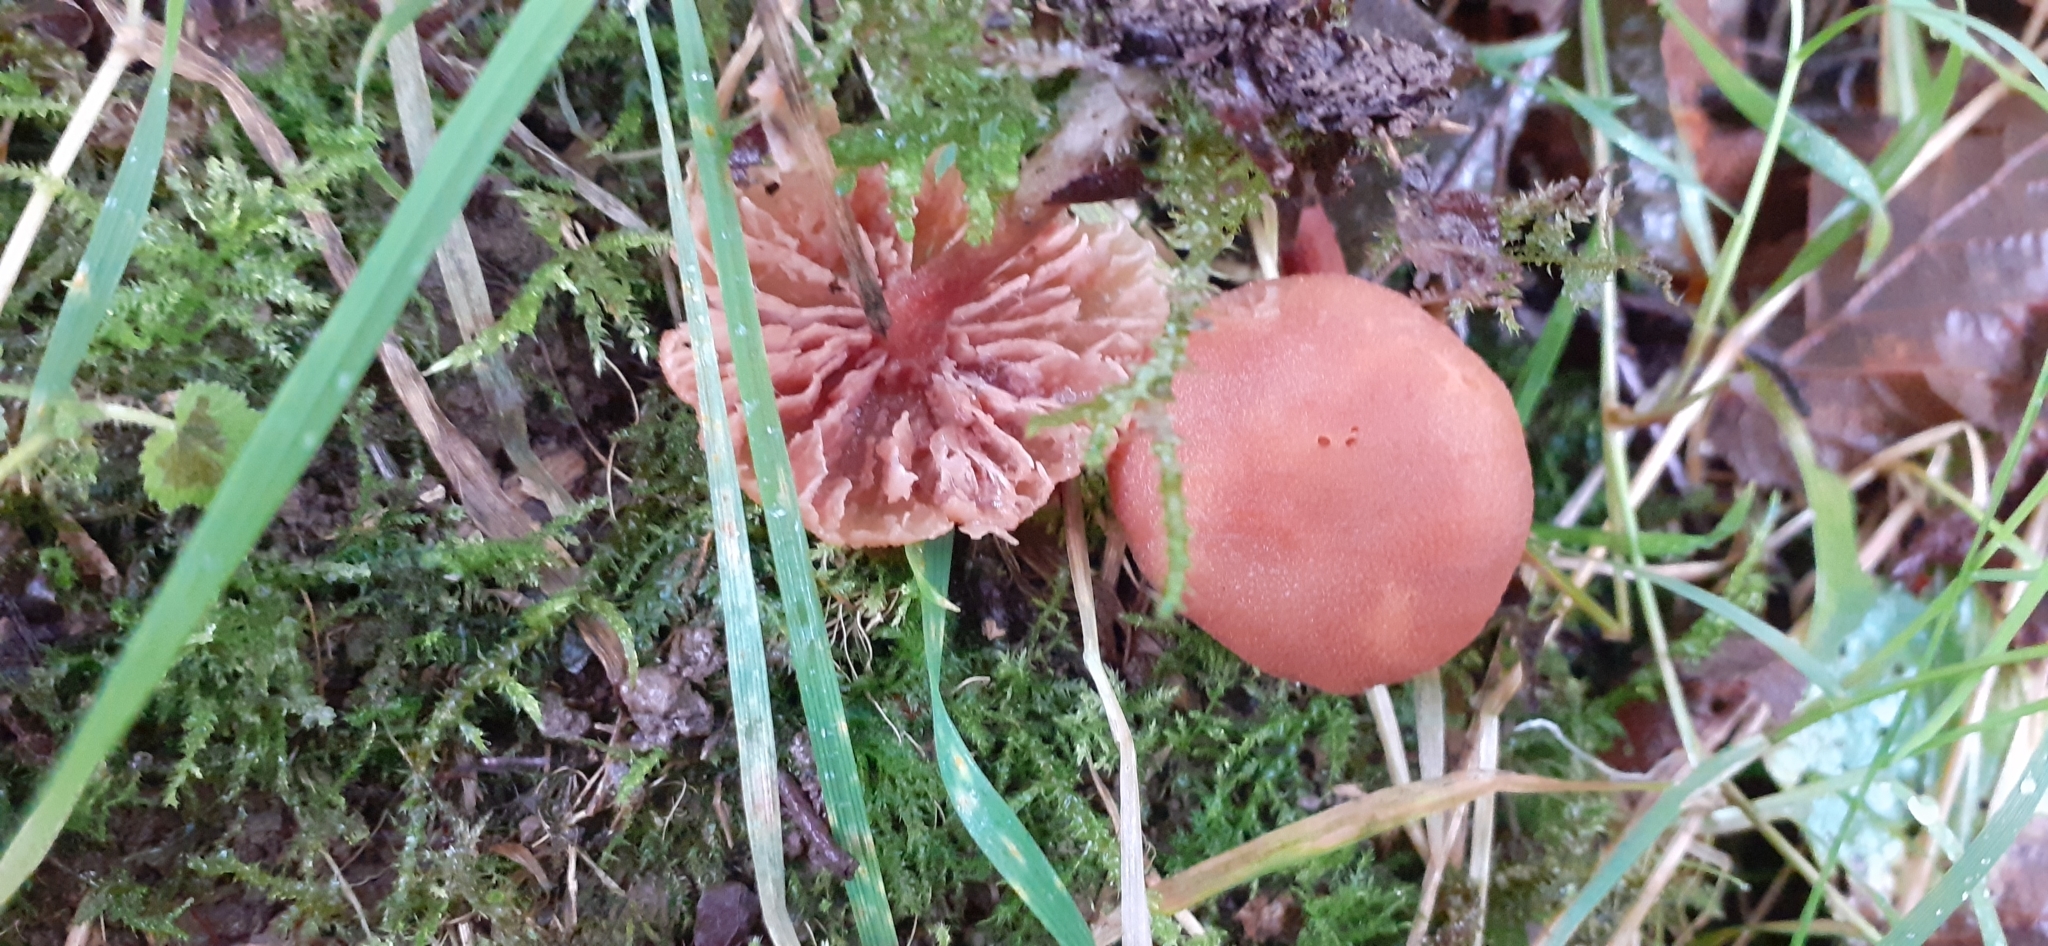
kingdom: Fungi
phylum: Basidiomycota
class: Agaricomycetes
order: Agaricales
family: Hydnangiaceae
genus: Laccaria
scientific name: Laccaria laccata
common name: Deceiver
